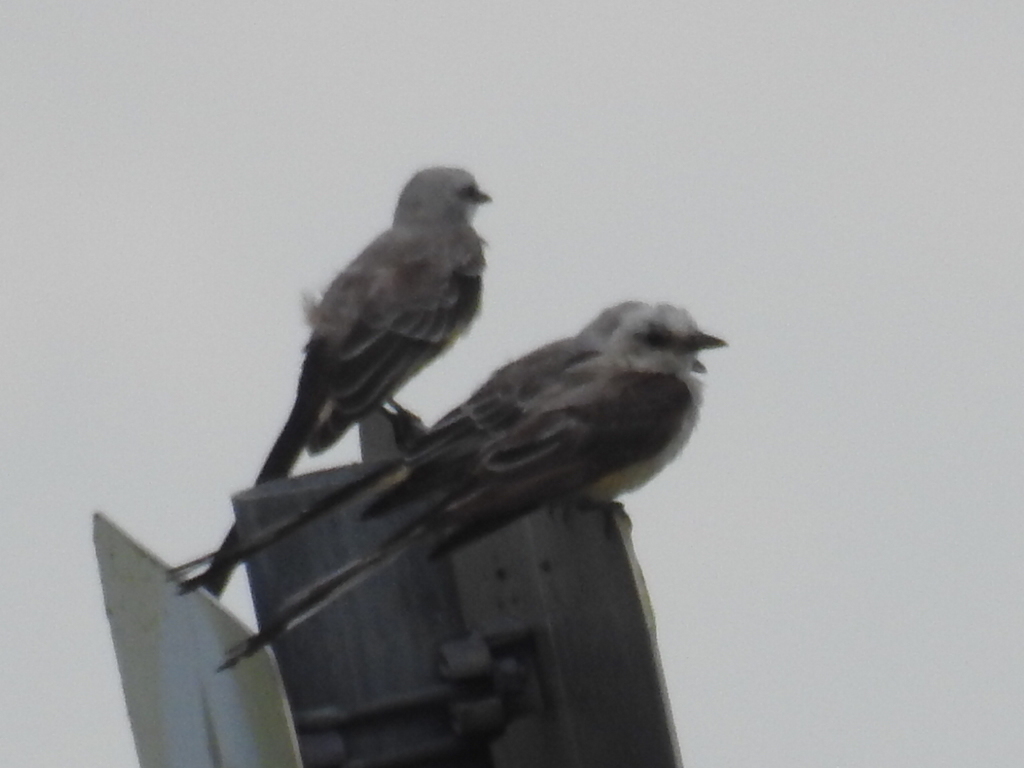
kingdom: Animalia
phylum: Chordata
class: Aves
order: Passeriformes
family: Tyrannidae
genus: Tyrannus
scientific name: Tyrannus forficatus
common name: Scissor-tailed flycatcher
